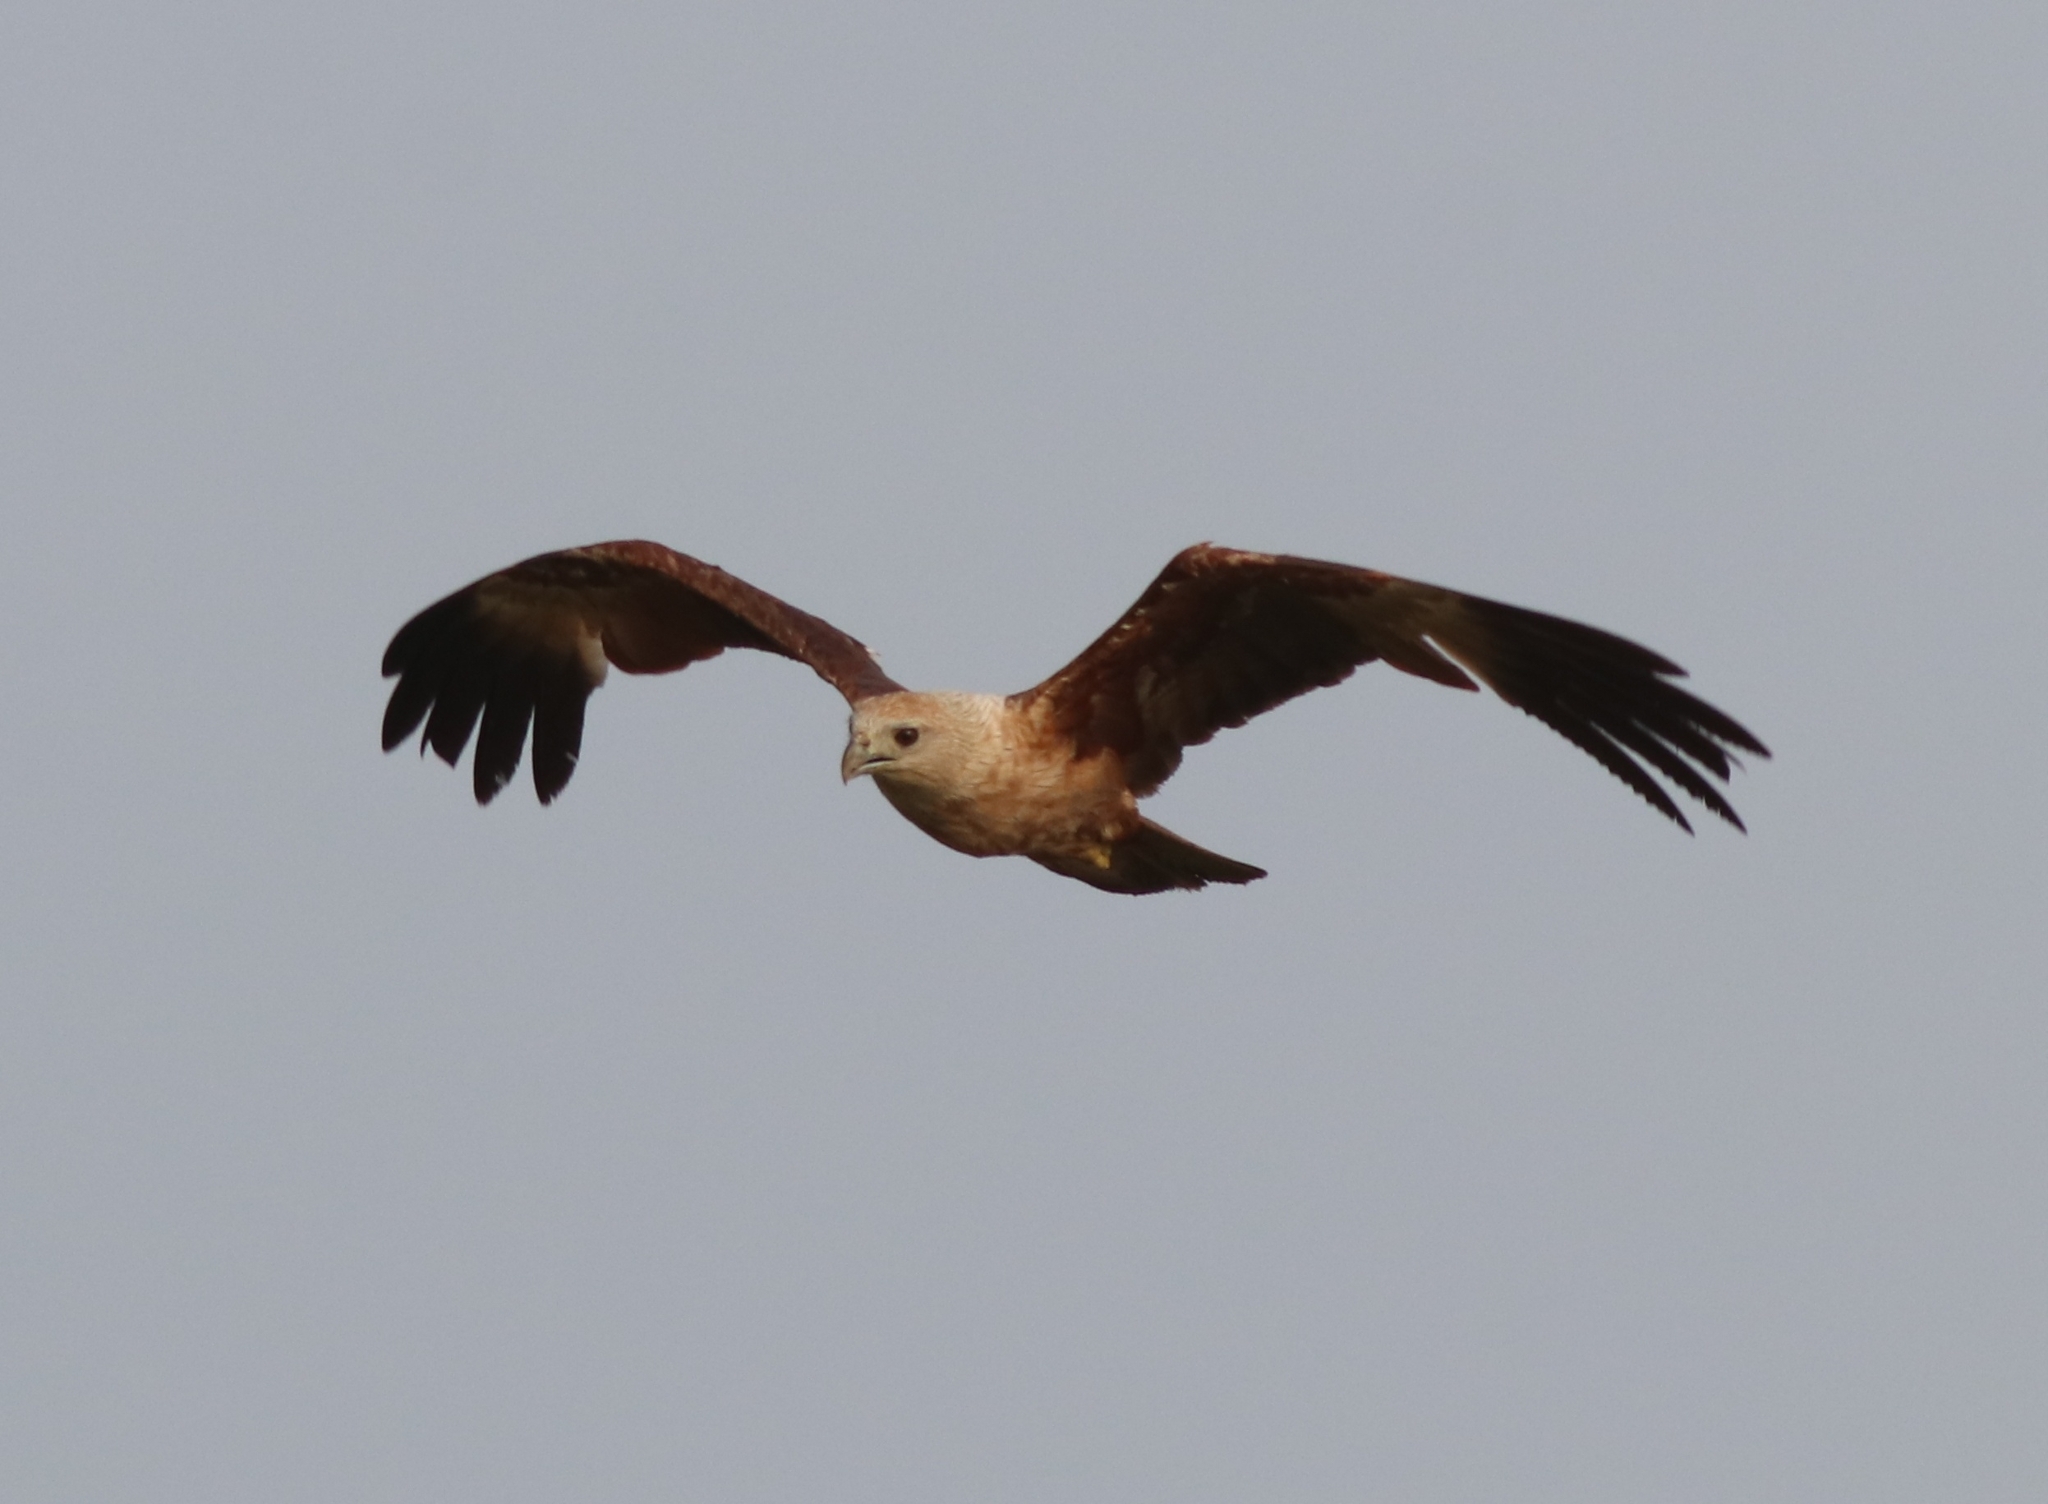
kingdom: Animalia
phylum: Chordata
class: Aves
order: Accipitriformes
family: Accipitridae
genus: Haliastur
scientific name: Haliastur indus
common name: Brahminy kite
